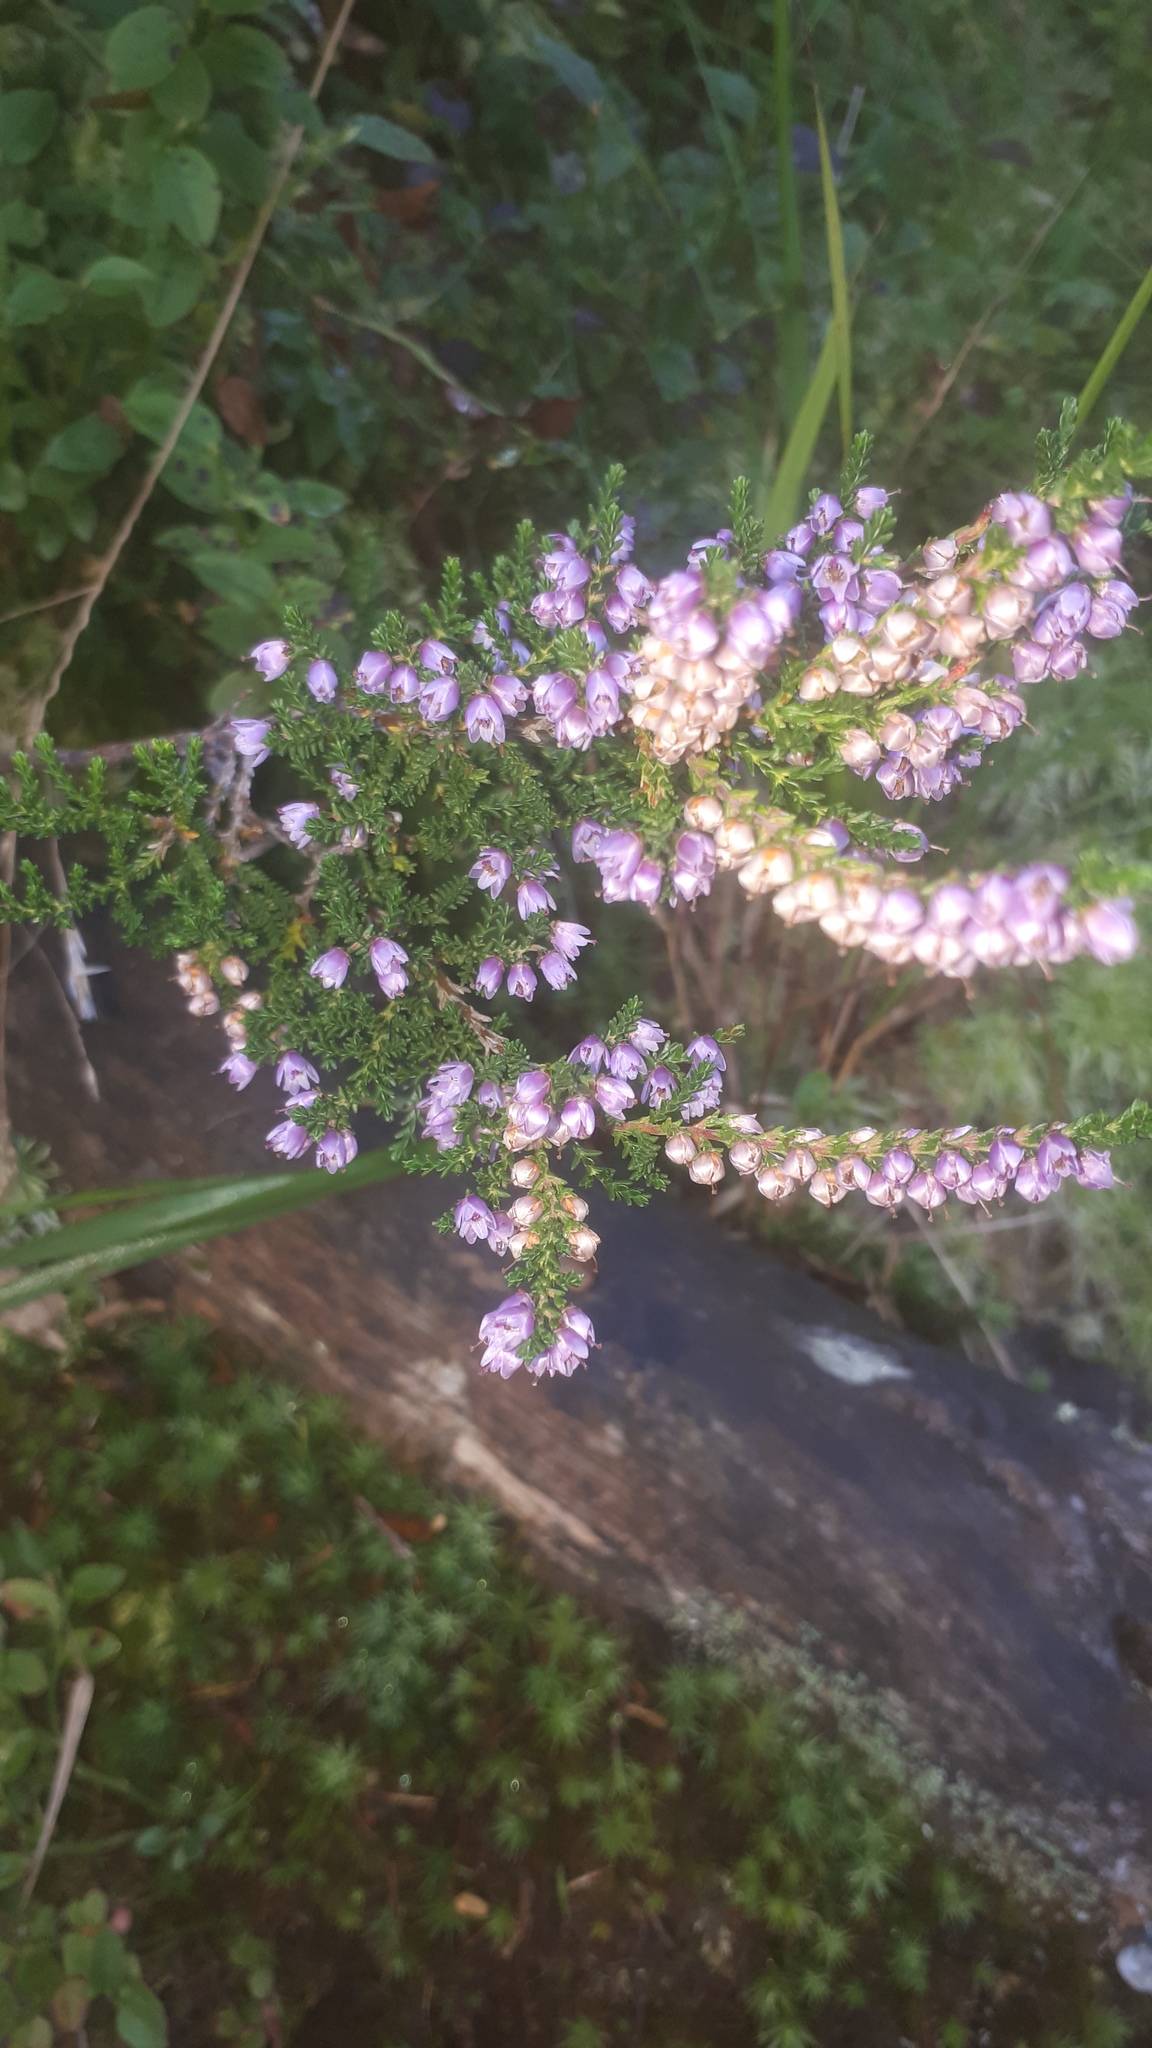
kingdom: Plantae
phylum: Tracheophyta
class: Magnoliopsida
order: Ericales
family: Ericaceae
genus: Calluna
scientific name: Calluna vulgaris
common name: Heather
